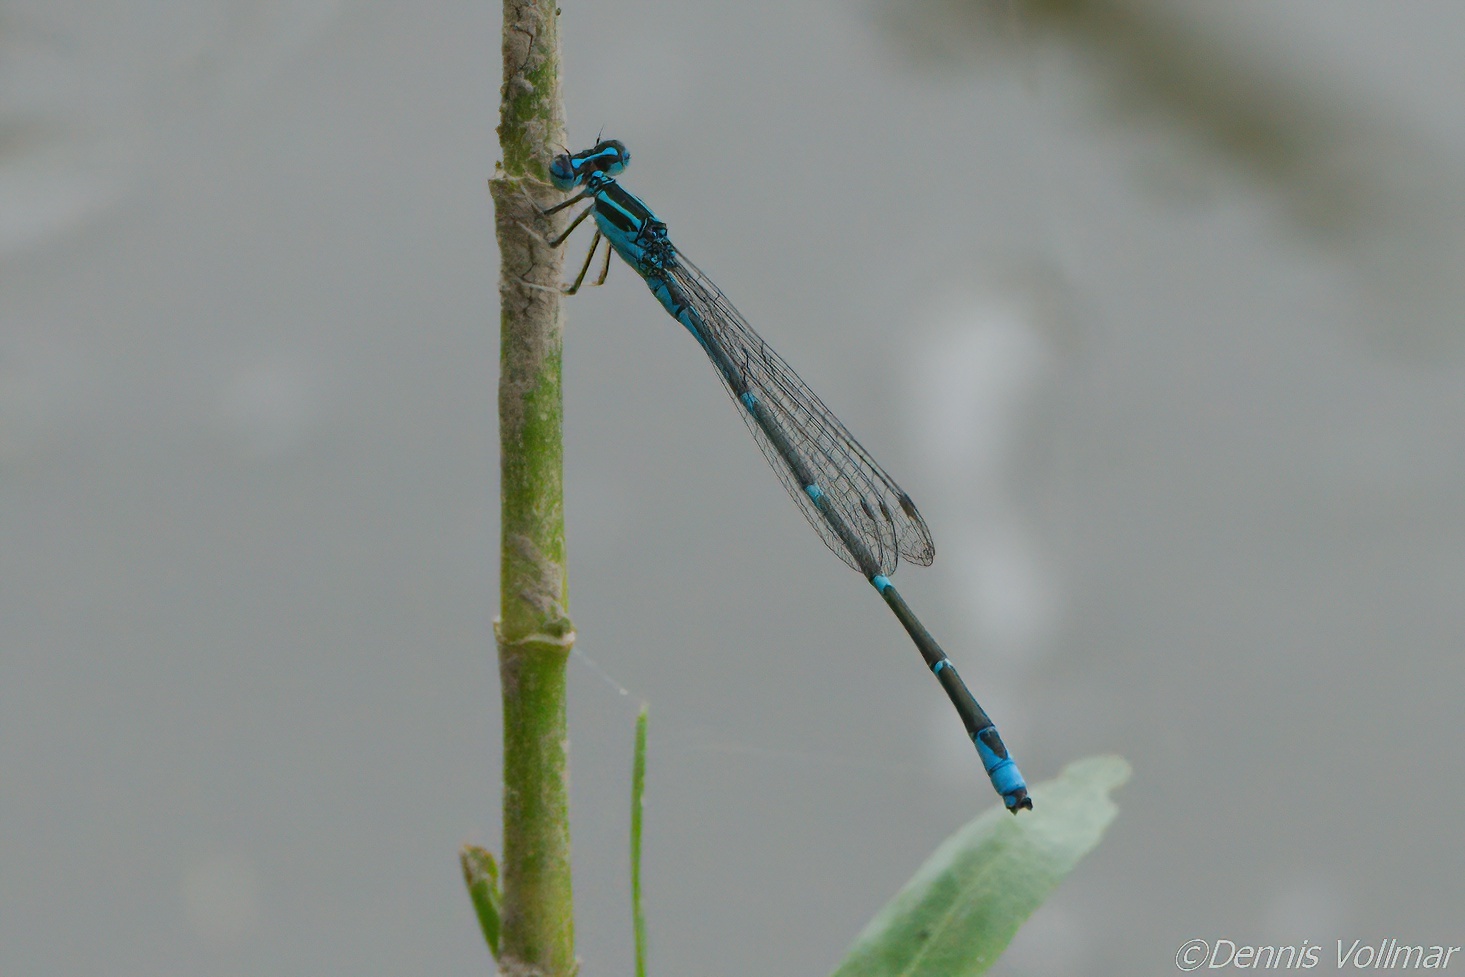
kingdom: Animalia
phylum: Arthropoda
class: Insecta
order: Odonata
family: Coenagrionidae
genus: Enallagma
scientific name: Enallagma exsulans
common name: Stream bluet
